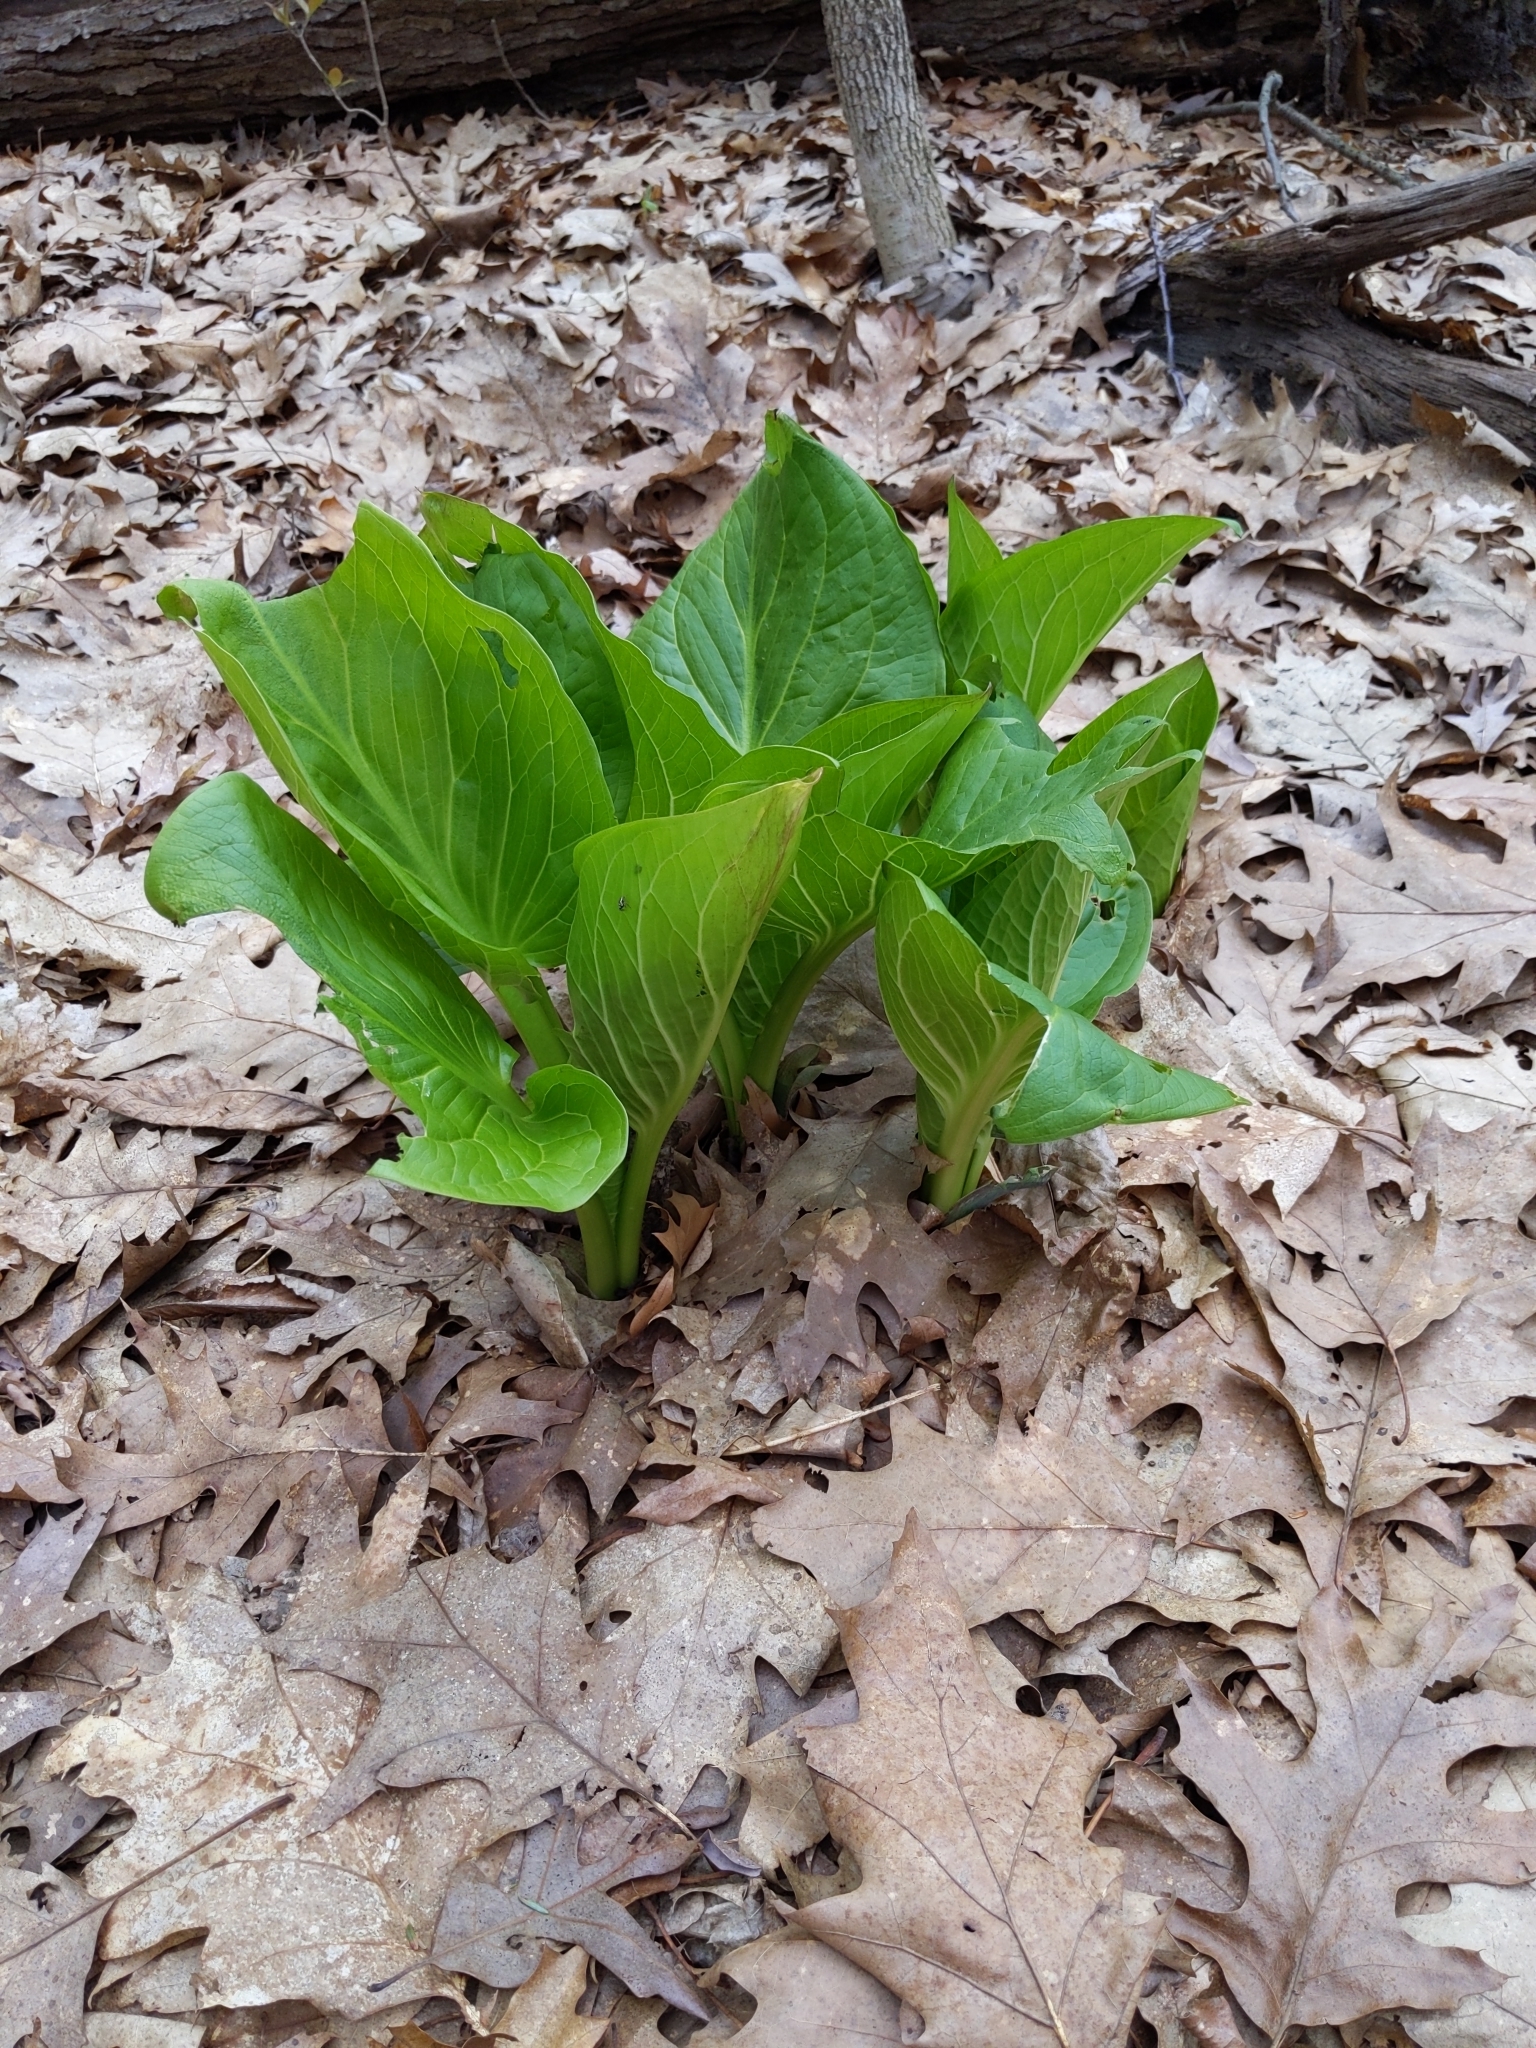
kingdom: Plantae
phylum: Tracheophyta
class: Liliopsida
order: Alismatales
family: Araceae
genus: Symplocarpus
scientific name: Symplocarpus foetidus
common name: Eastern skunk cabbage
